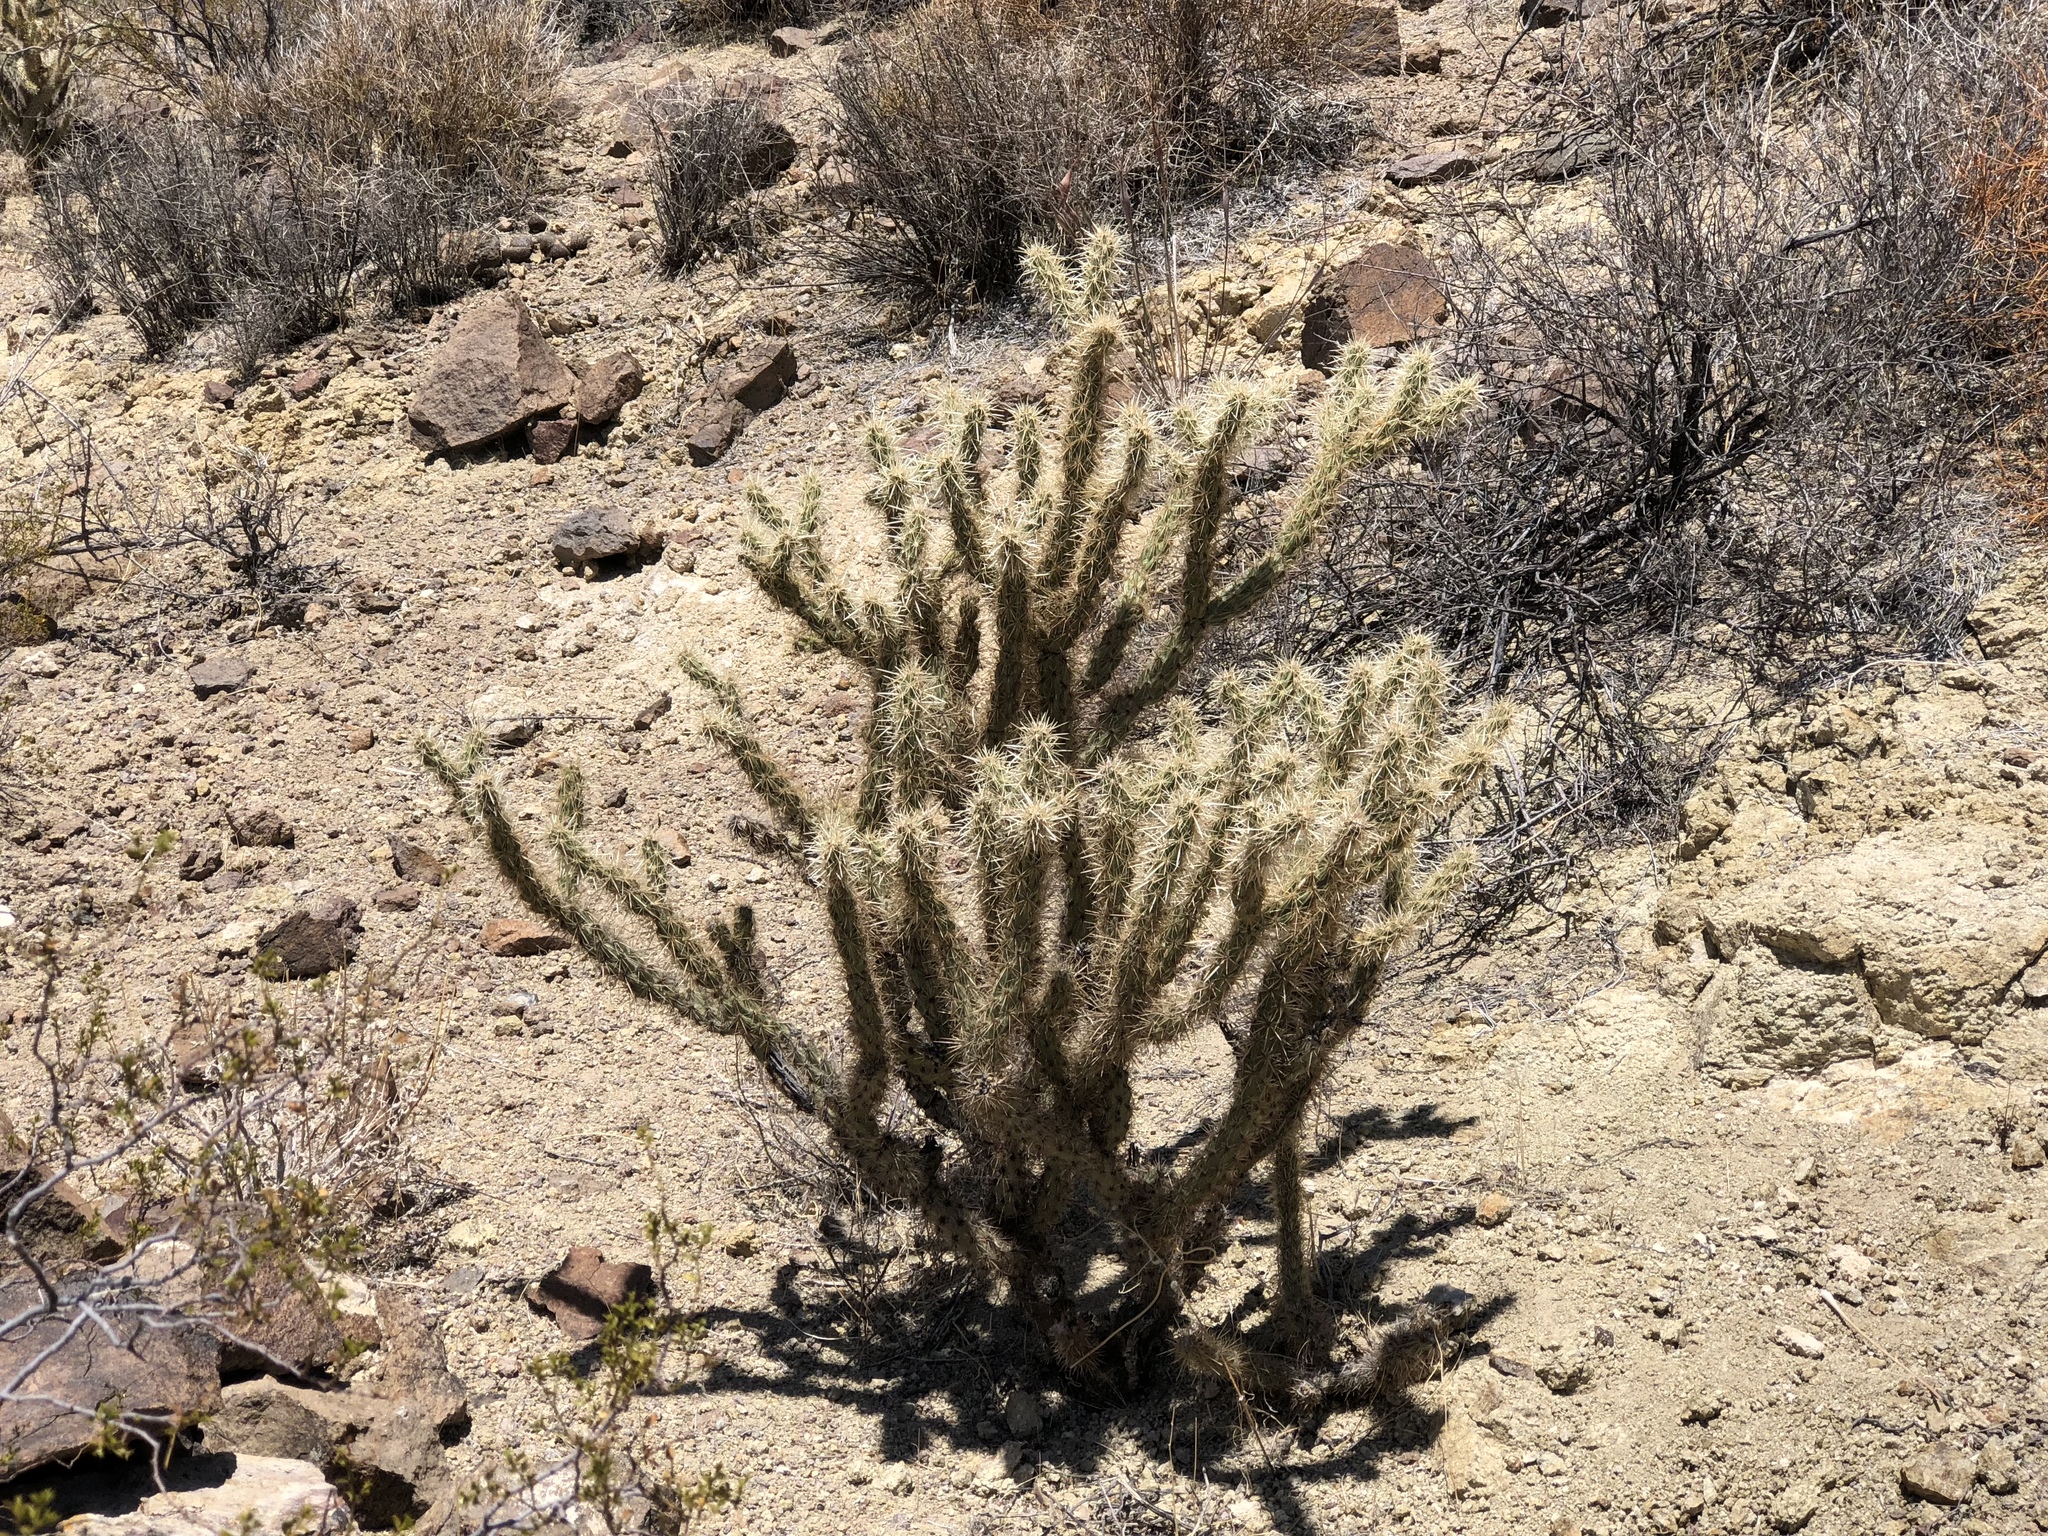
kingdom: Plantae
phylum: Tracheophyta
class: Magnoliopsida
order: Caryophyllales
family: Cactaceae
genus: Cylindropuntia
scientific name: Cylindropuntia acanthocarpa
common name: Buckhorn cholla
